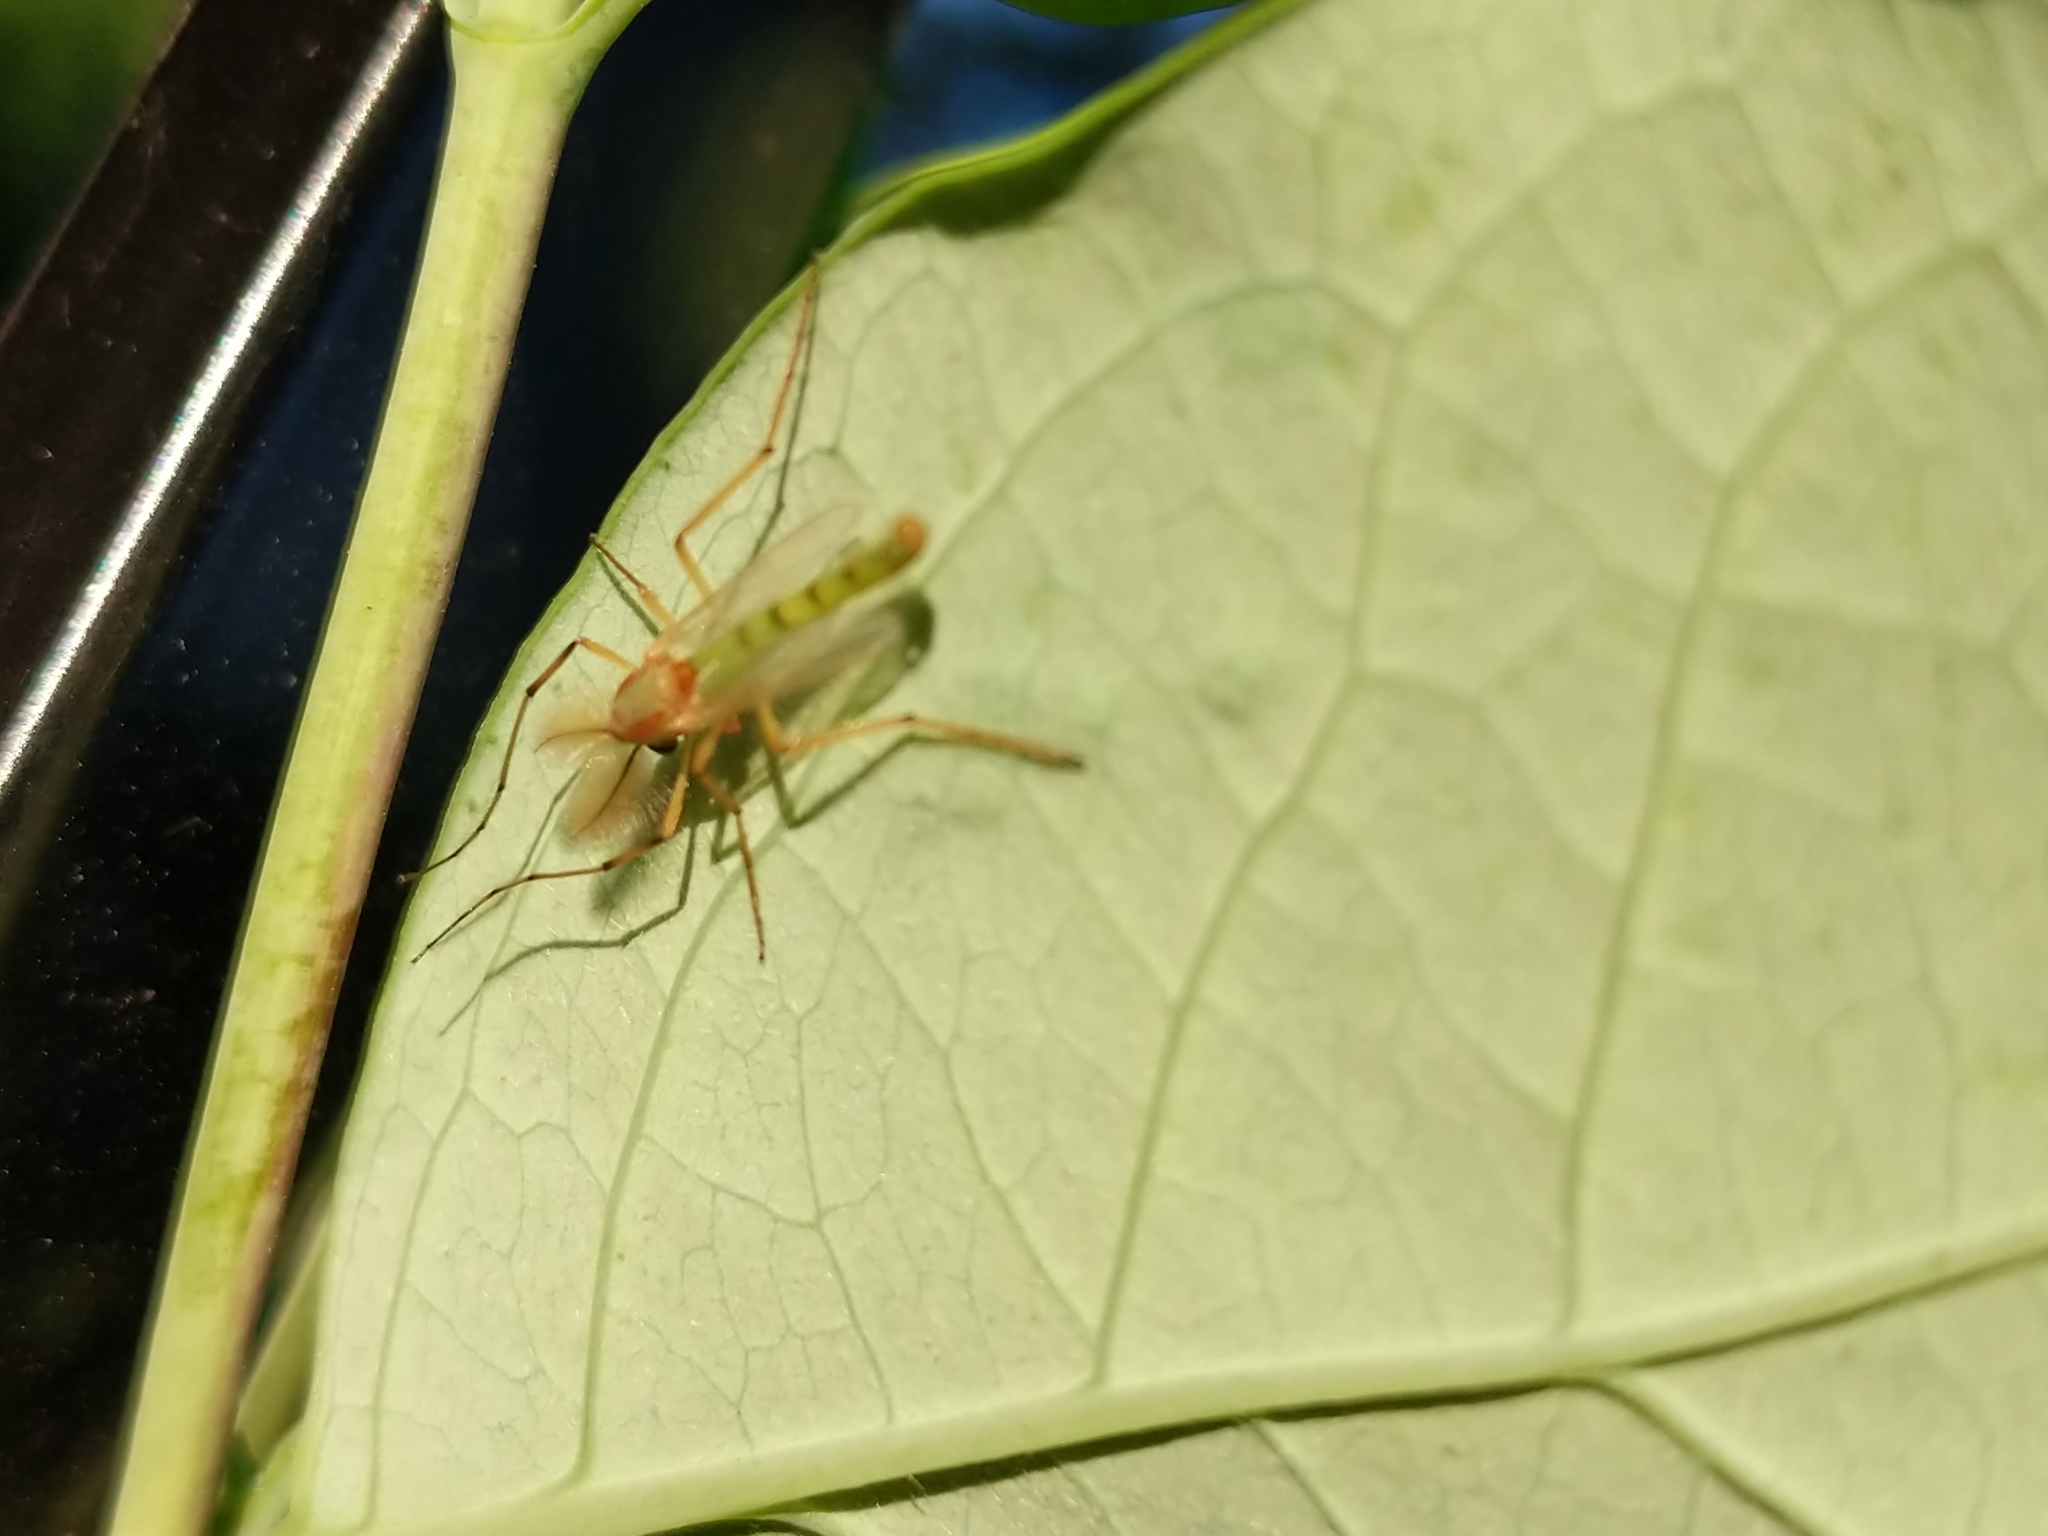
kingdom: Animalia
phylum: Arthropoda
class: Insecta
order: Diptera
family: Chironomidae
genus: Axarus
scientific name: Axarus
